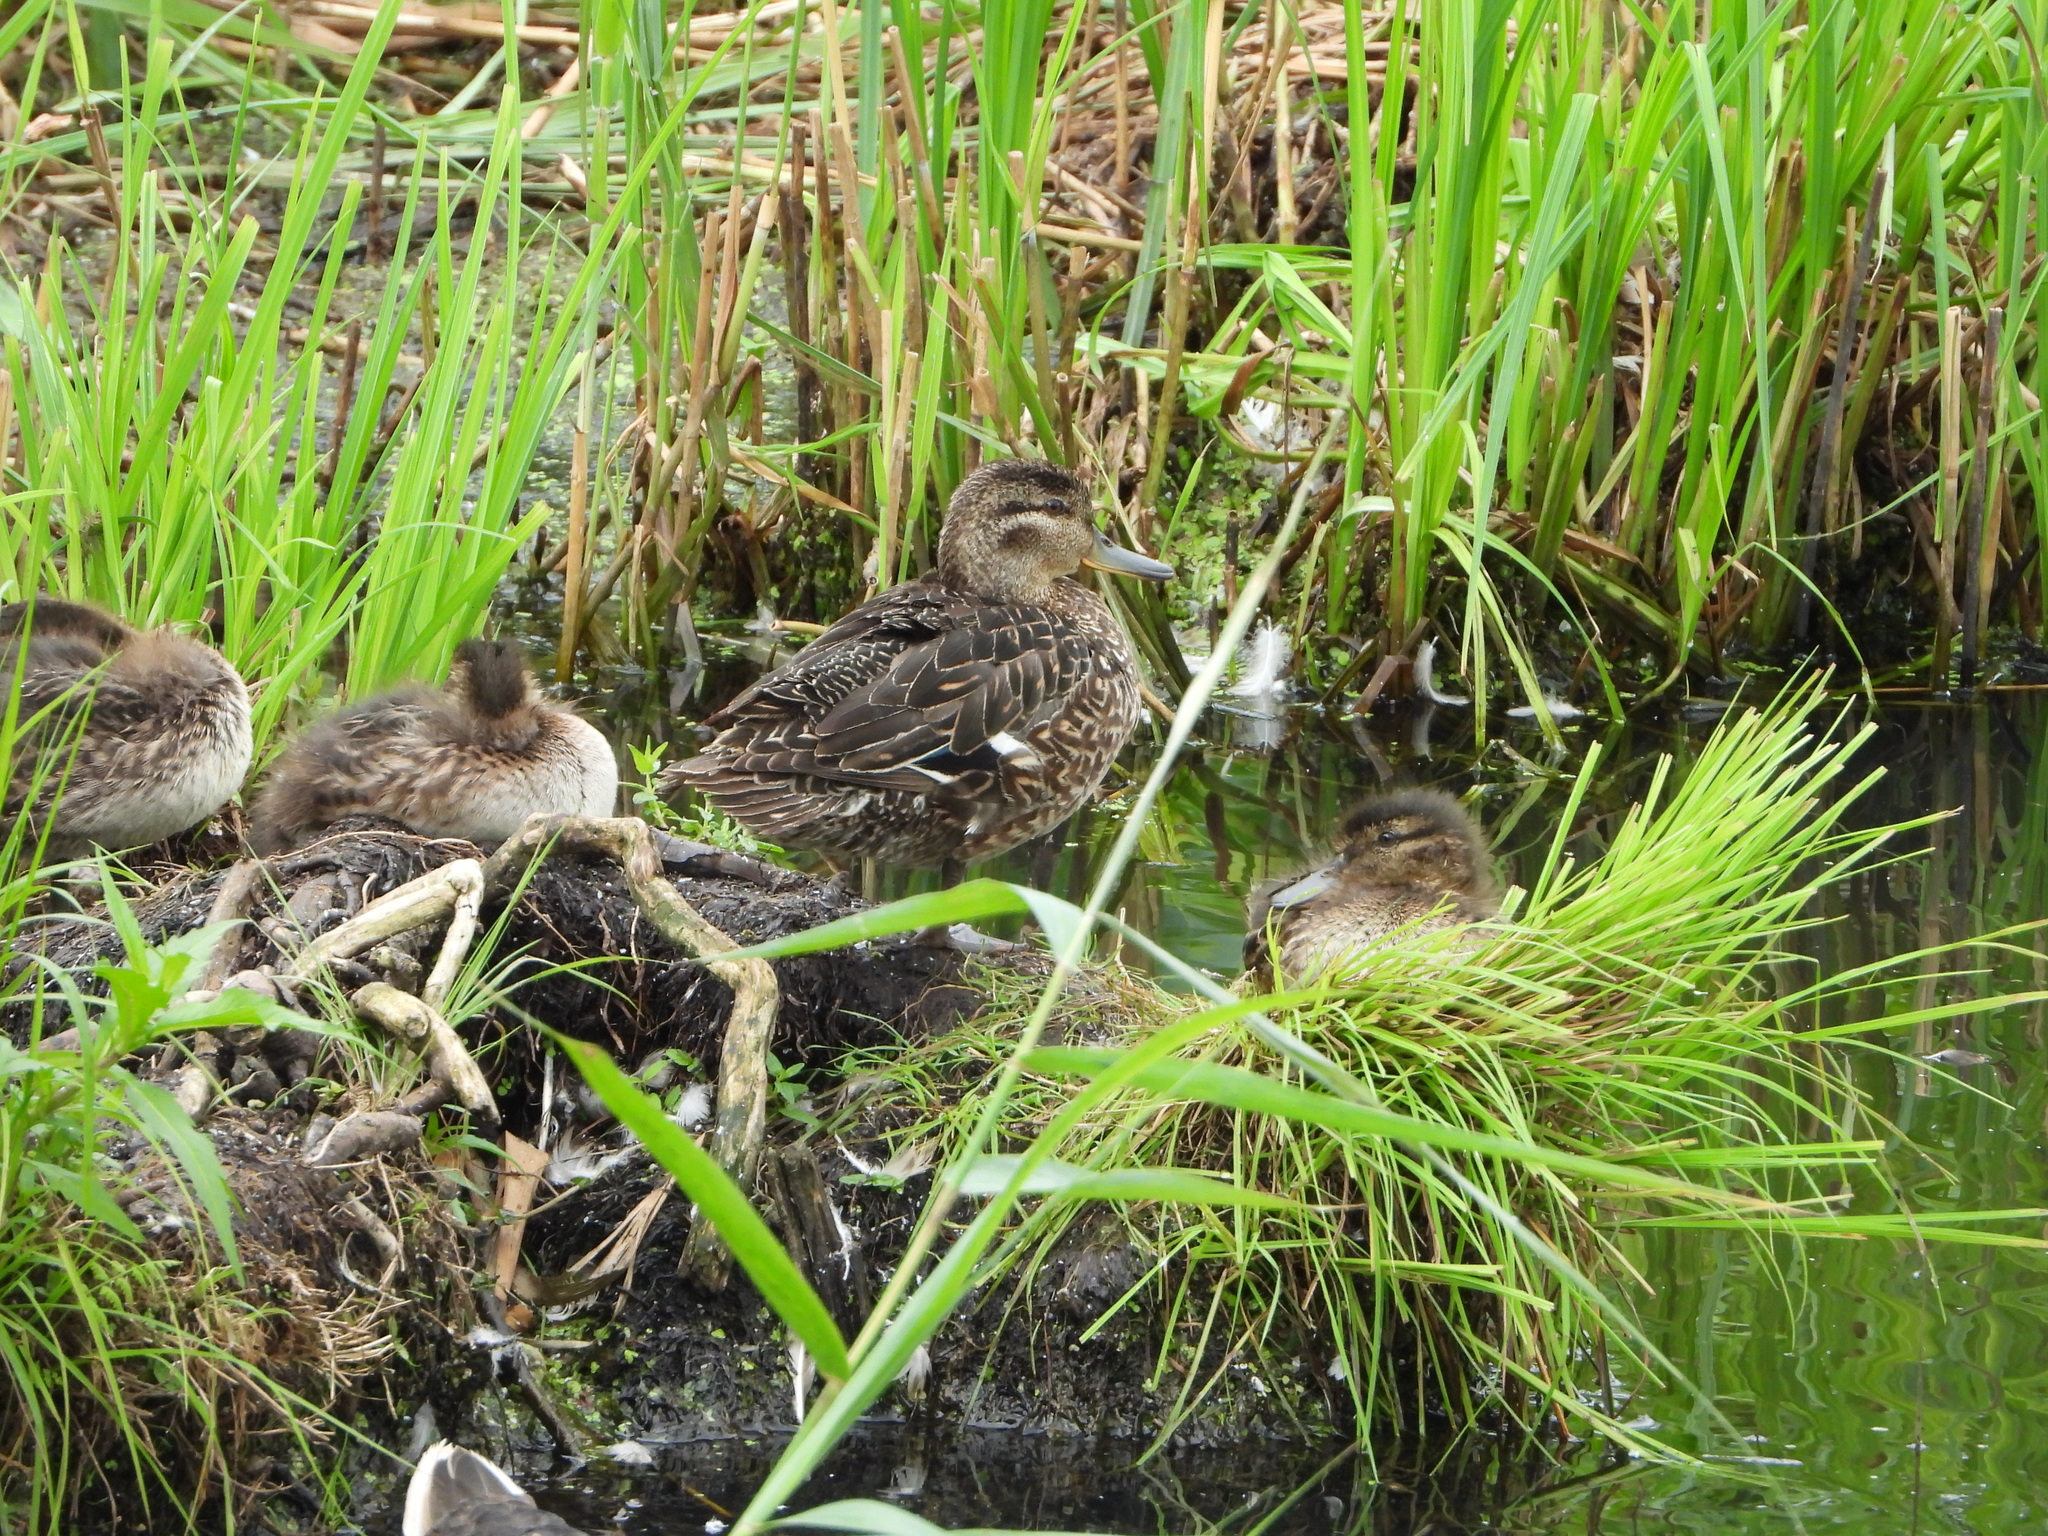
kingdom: Animalia
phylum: Chordata
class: Aves
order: Anseriformes
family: Anatidae
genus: Spatula
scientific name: Spatula querquedula
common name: Garganey
